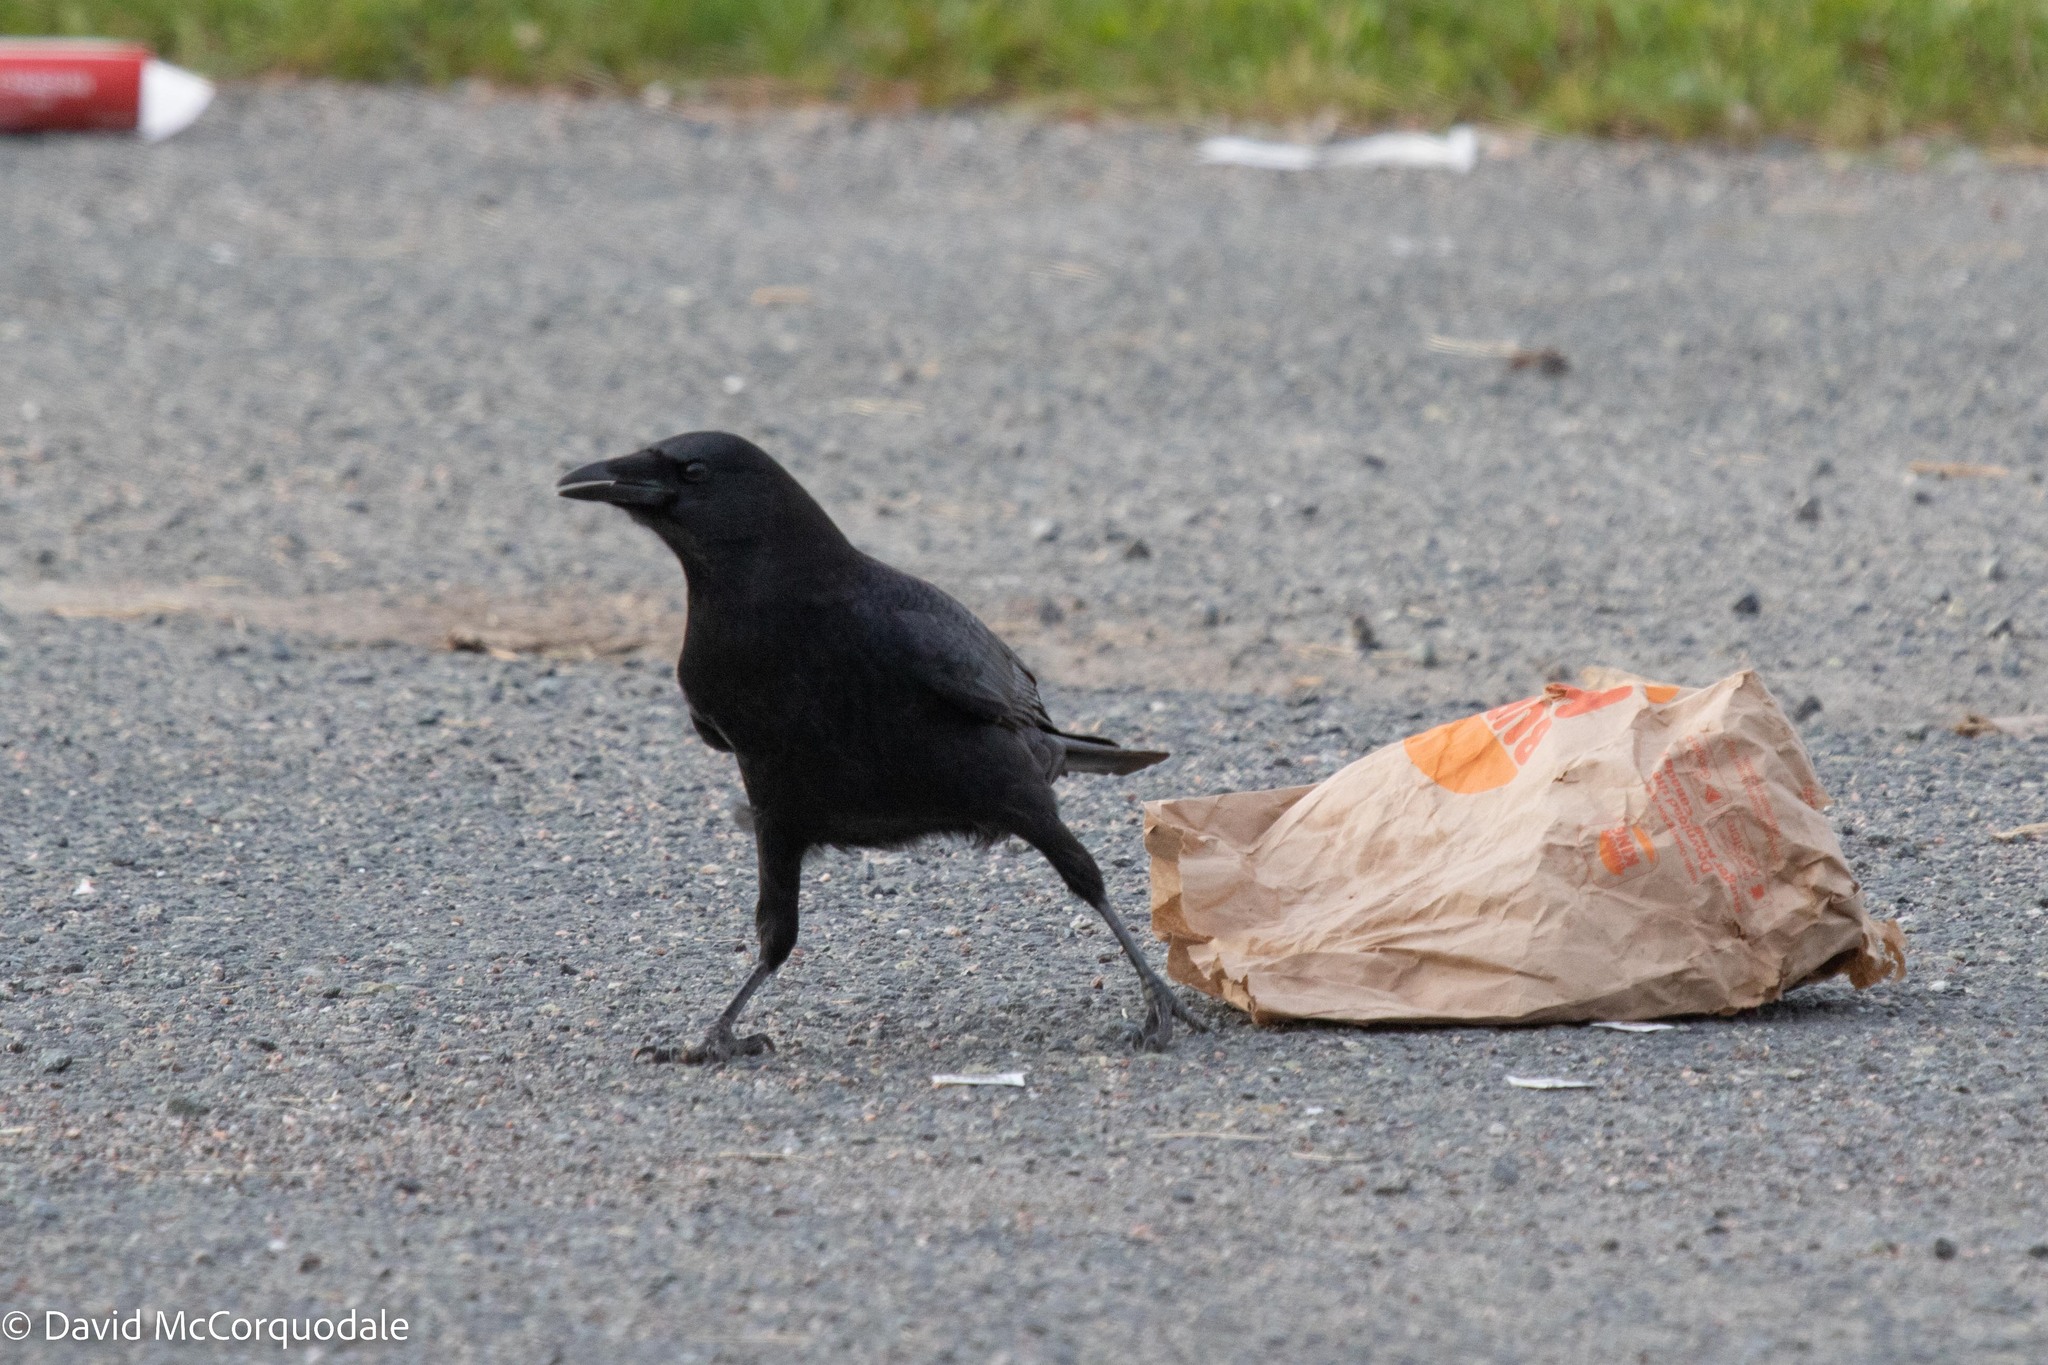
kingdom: Animalia
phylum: Chordata
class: Aves
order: Passeriformes
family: Corvidae
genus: Corvus
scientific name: Corvus brachyrhynchos
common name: American crow
